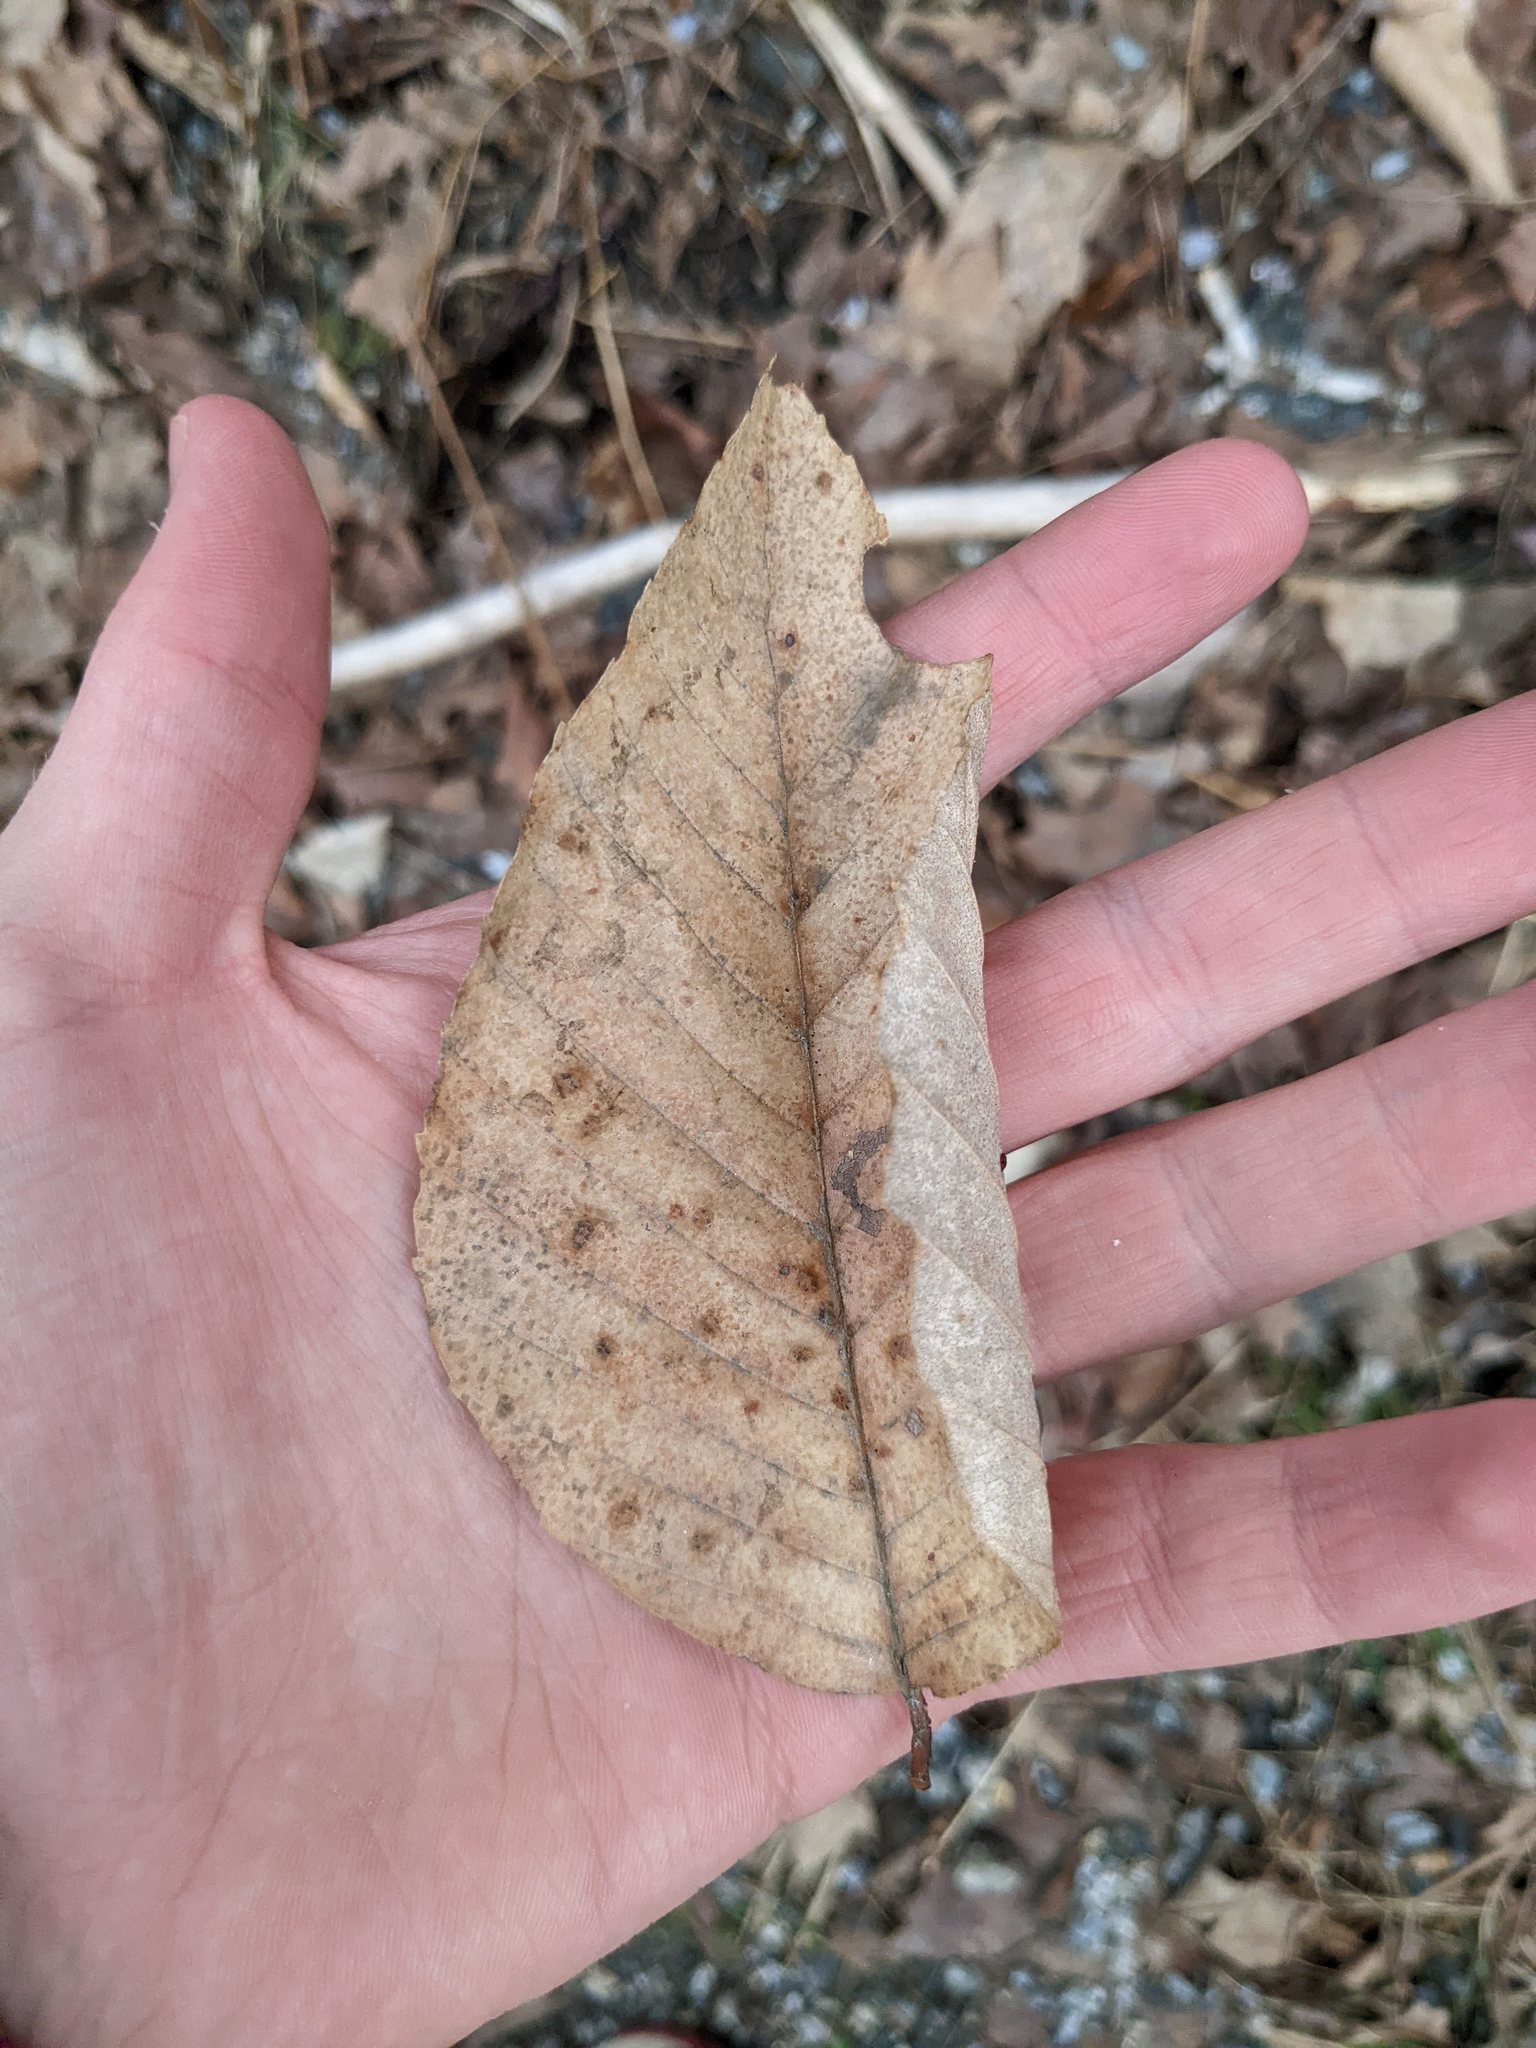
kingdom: Plantae
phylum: Tracheophyta
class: Magnoliopsida
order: Fagales
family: Fagaceae
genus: Fagus
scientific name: Fagus grandifolia
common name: American beech
